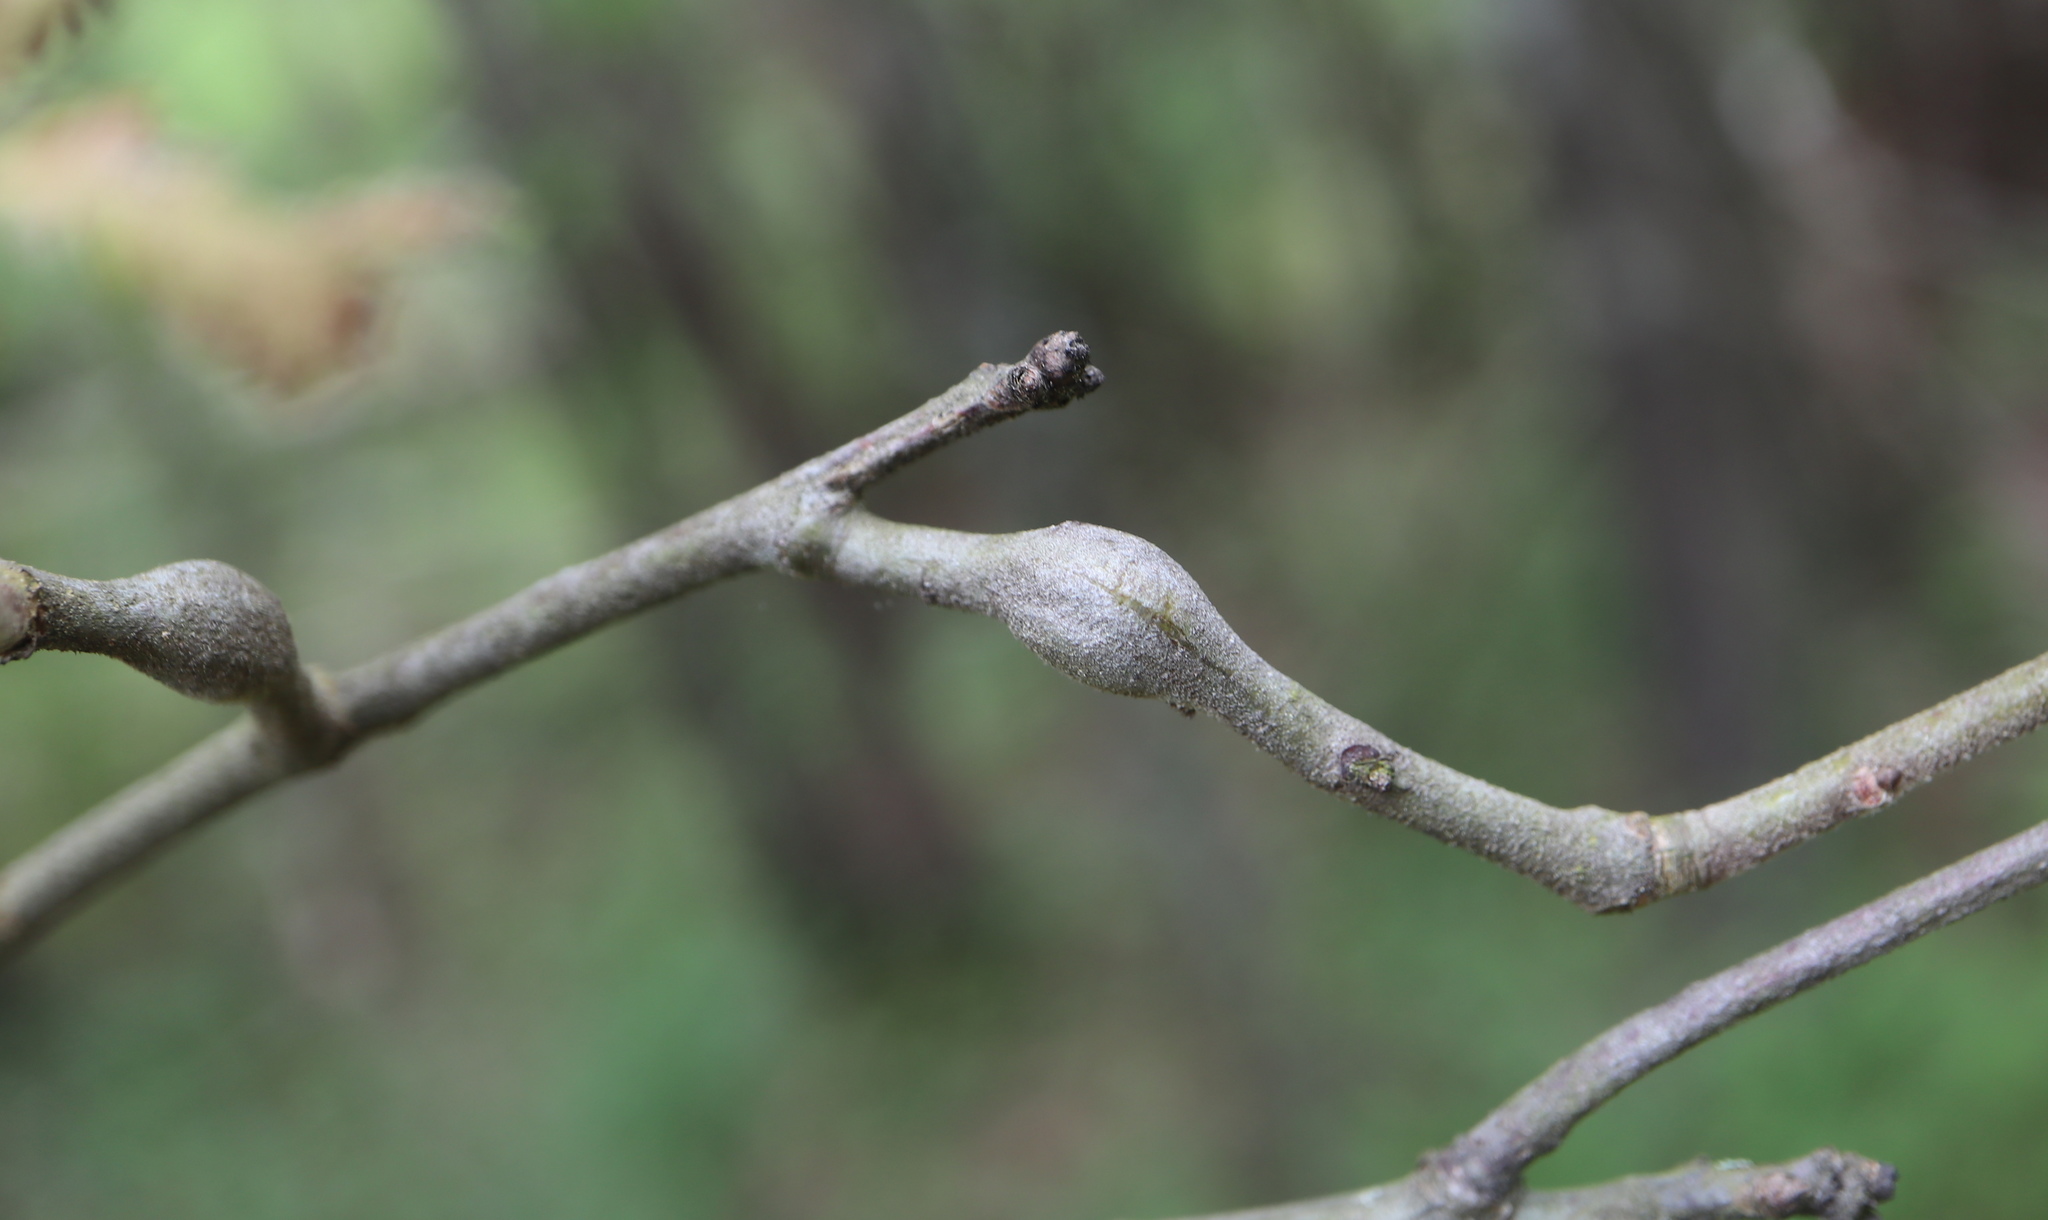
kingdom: Animalia
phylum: Arthropoda
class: Insecta
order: Hymenoptera
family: Cynipidae
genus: Zapatella
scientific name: Zapatella quercusphellos
